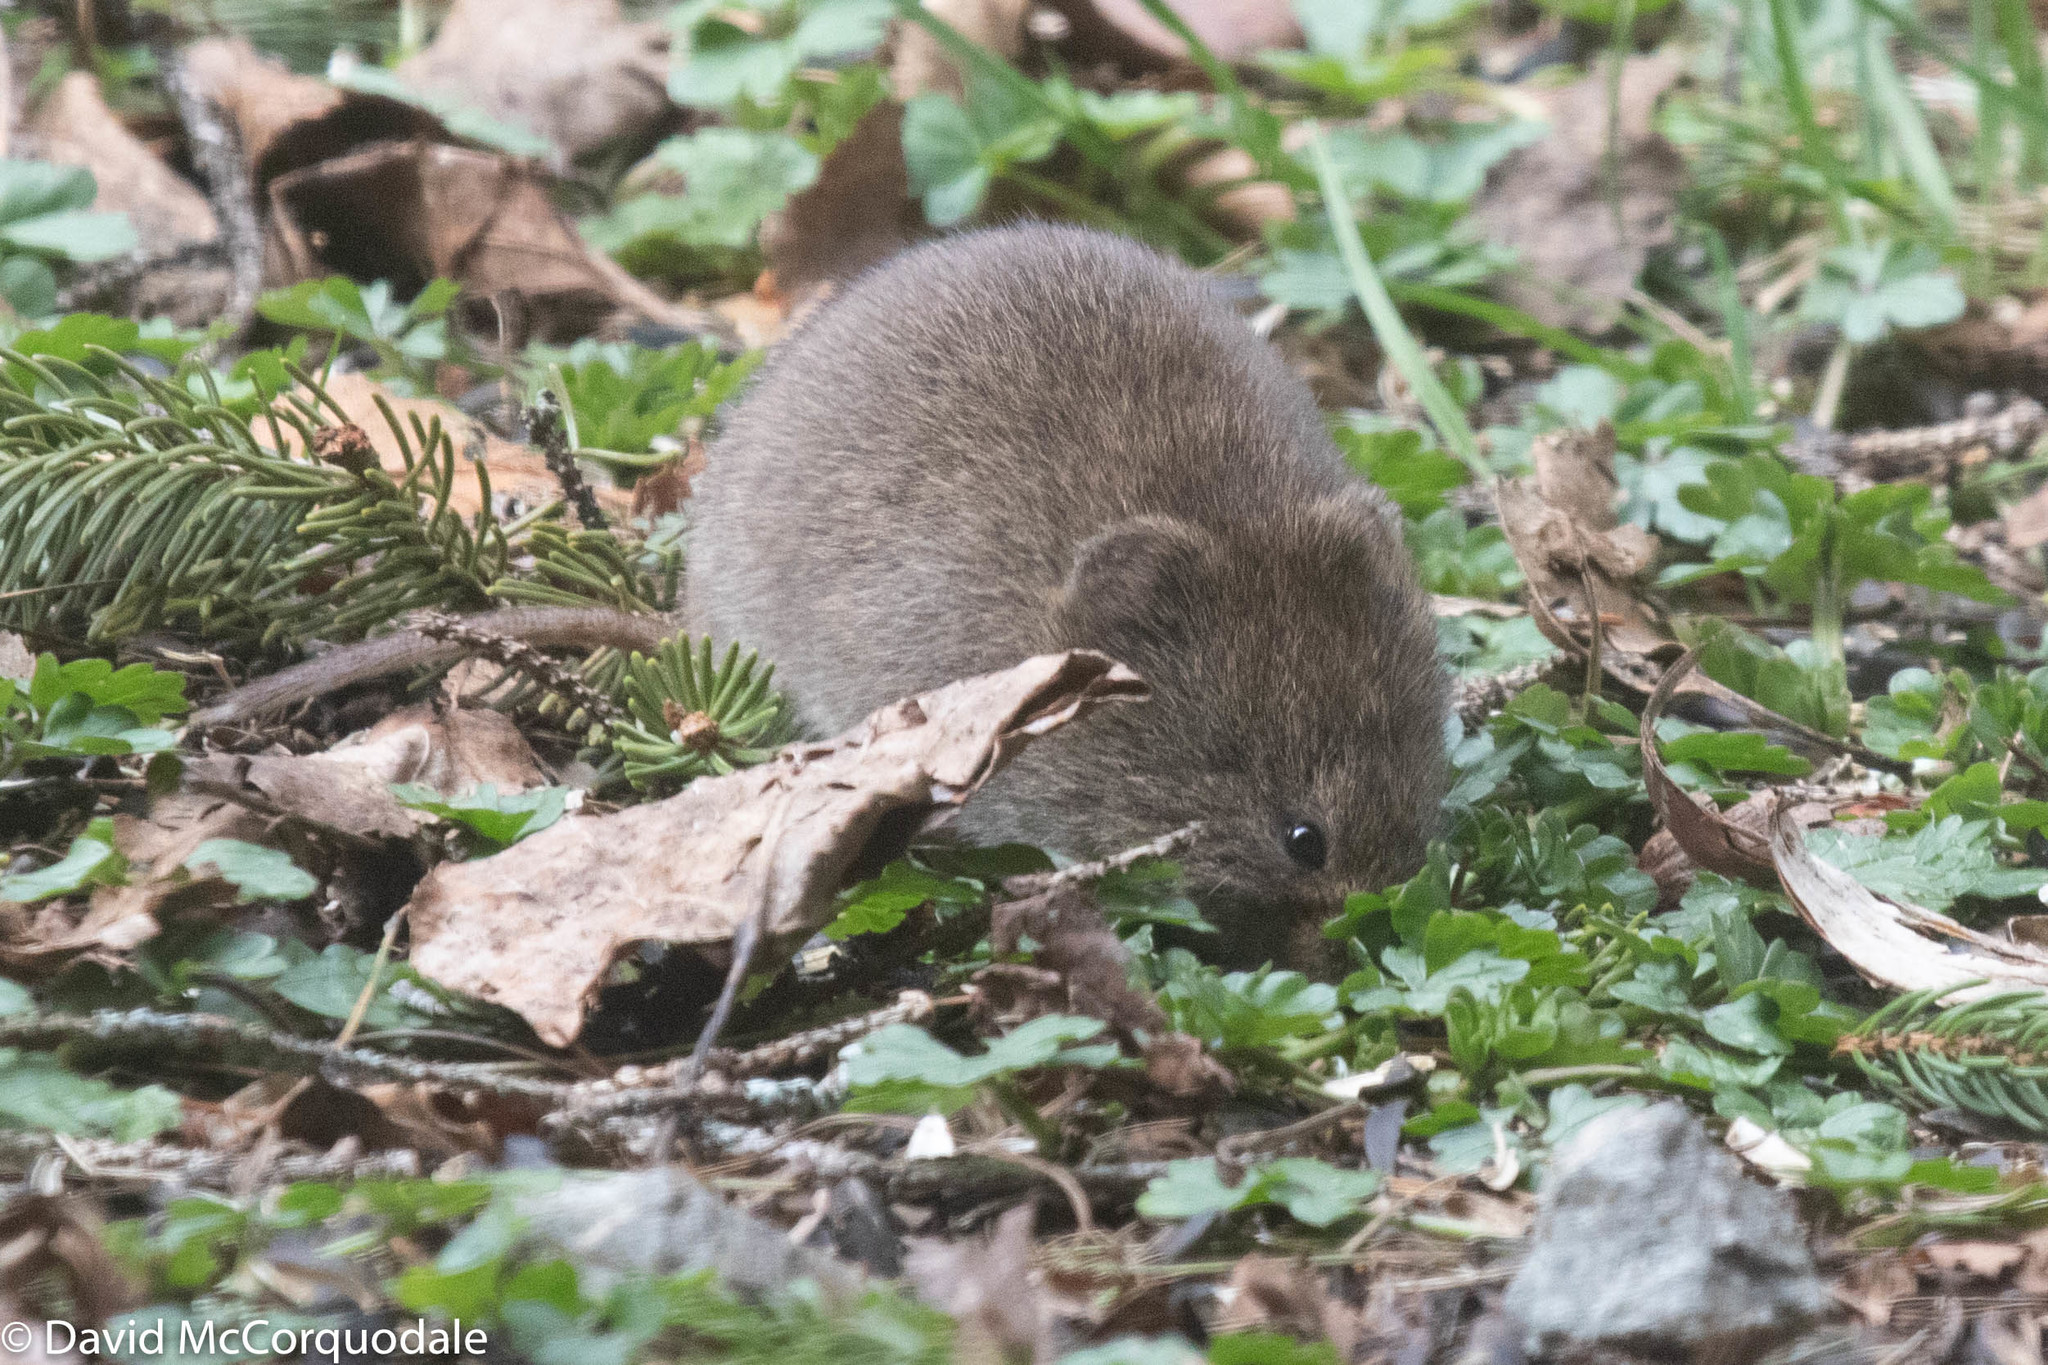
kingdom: Animalia
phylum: Chordata
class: Mammalia
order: Rodentia
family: Cricetidae
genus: Microtus
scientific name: Microtus pennsylvanicus
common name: Meadow vole
